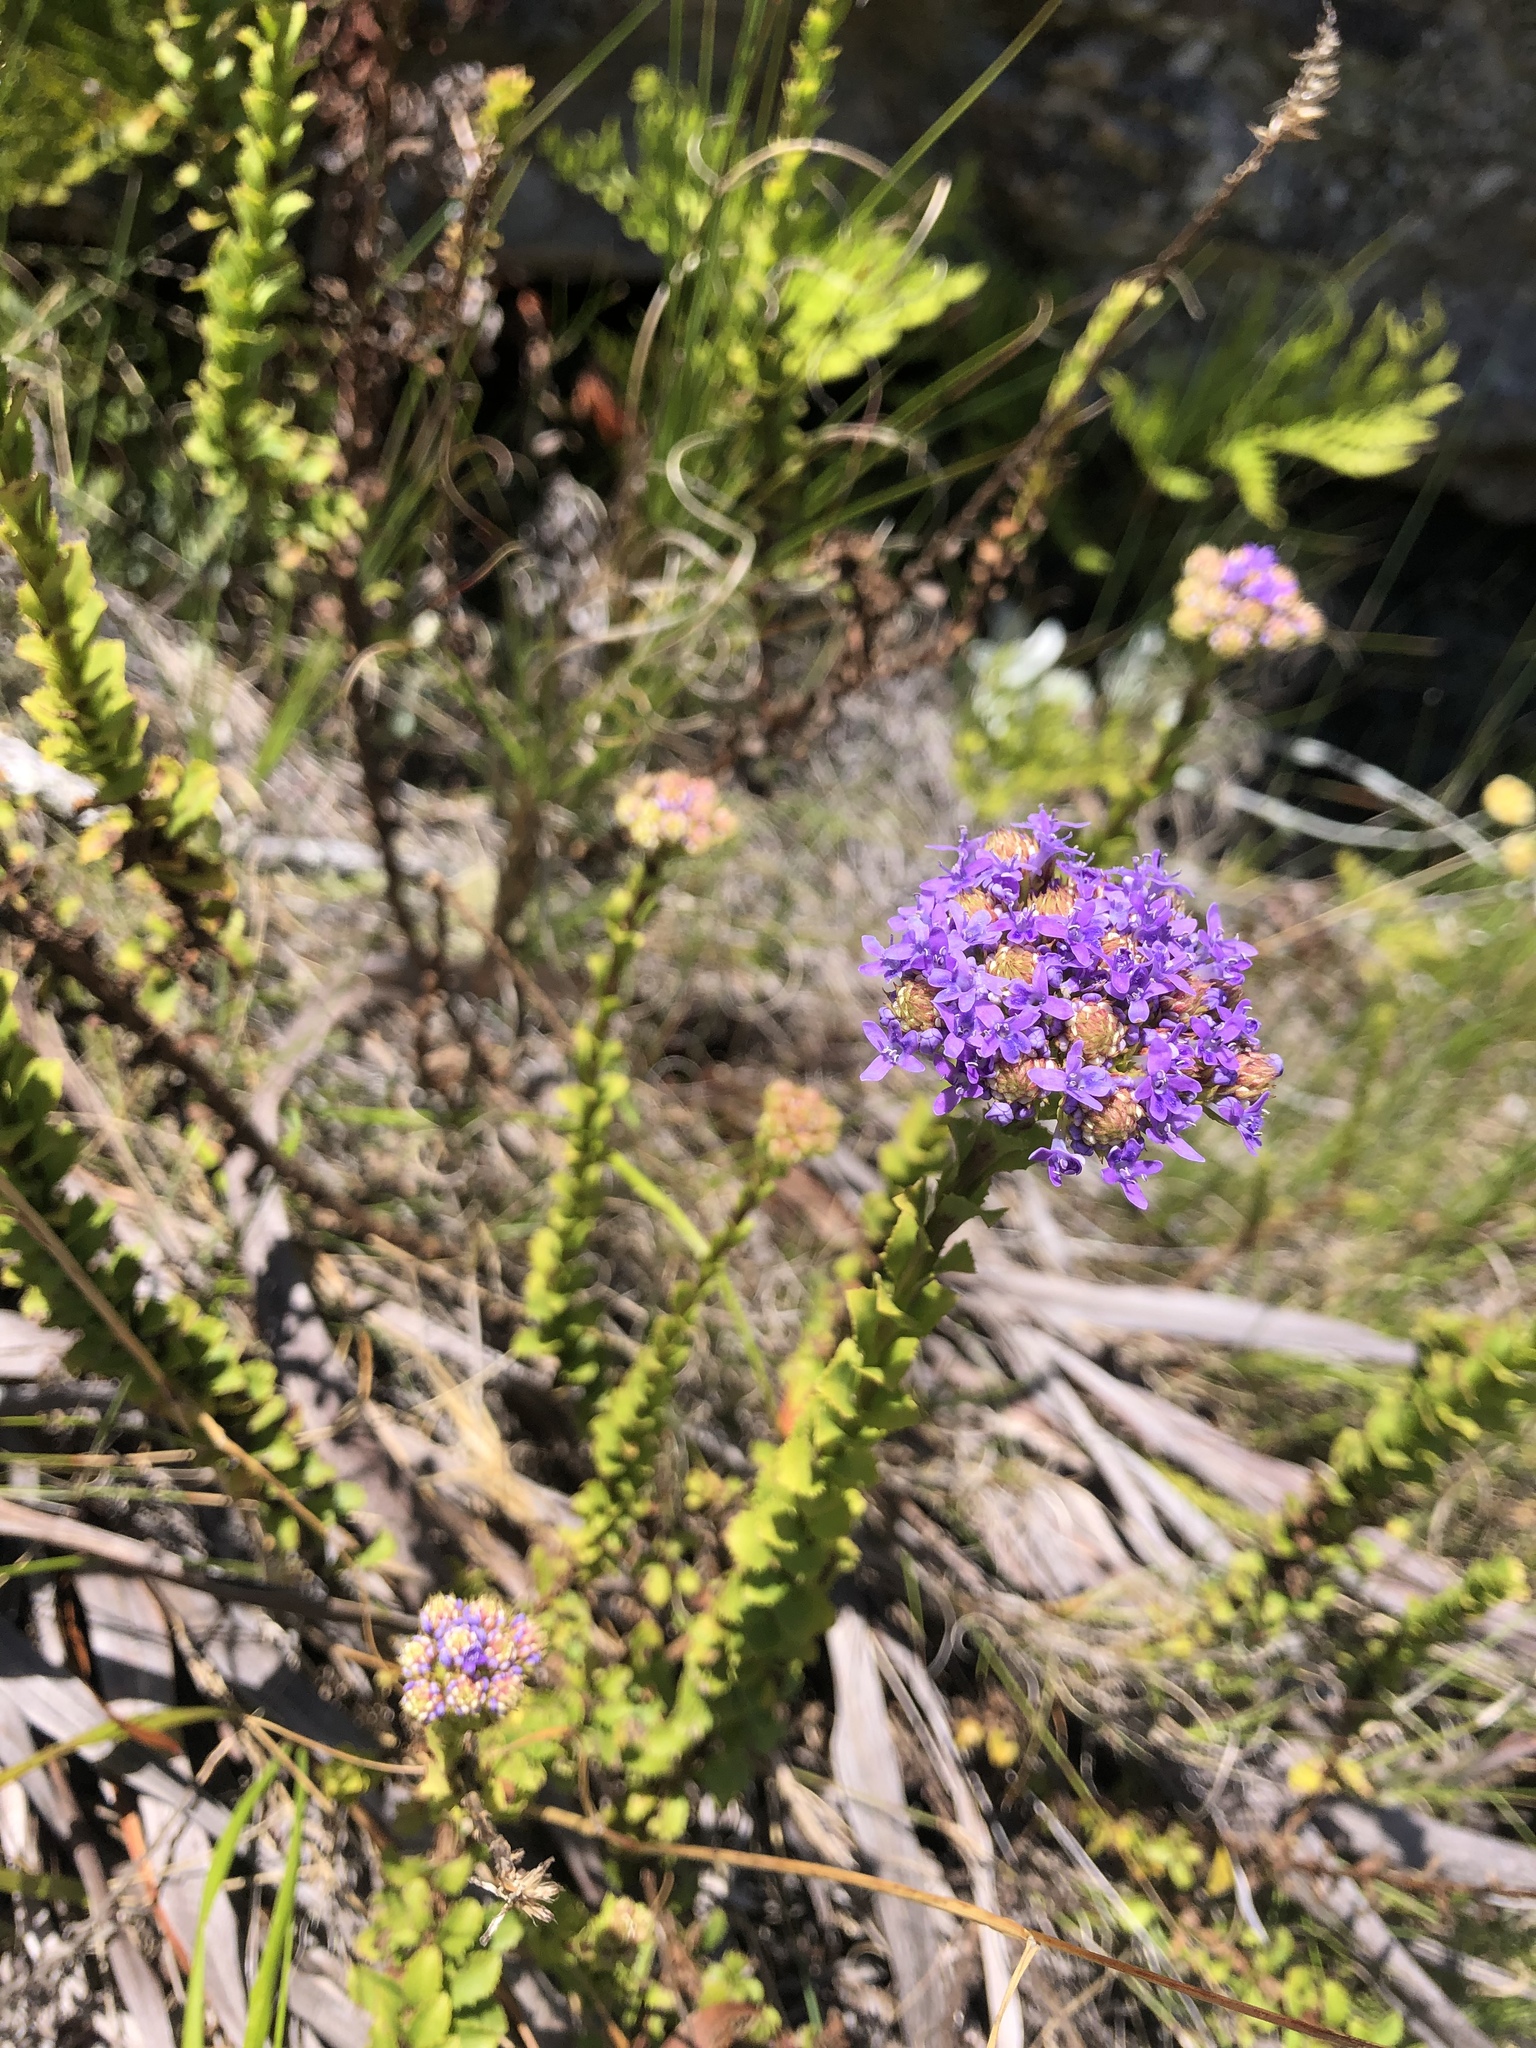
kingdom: Plantae
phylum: Tracheophyta
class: Magnoliopsida
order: Lamiales
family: Scrophulariaceae
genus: Pseudoselago
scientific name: Pseudoselago serrata
